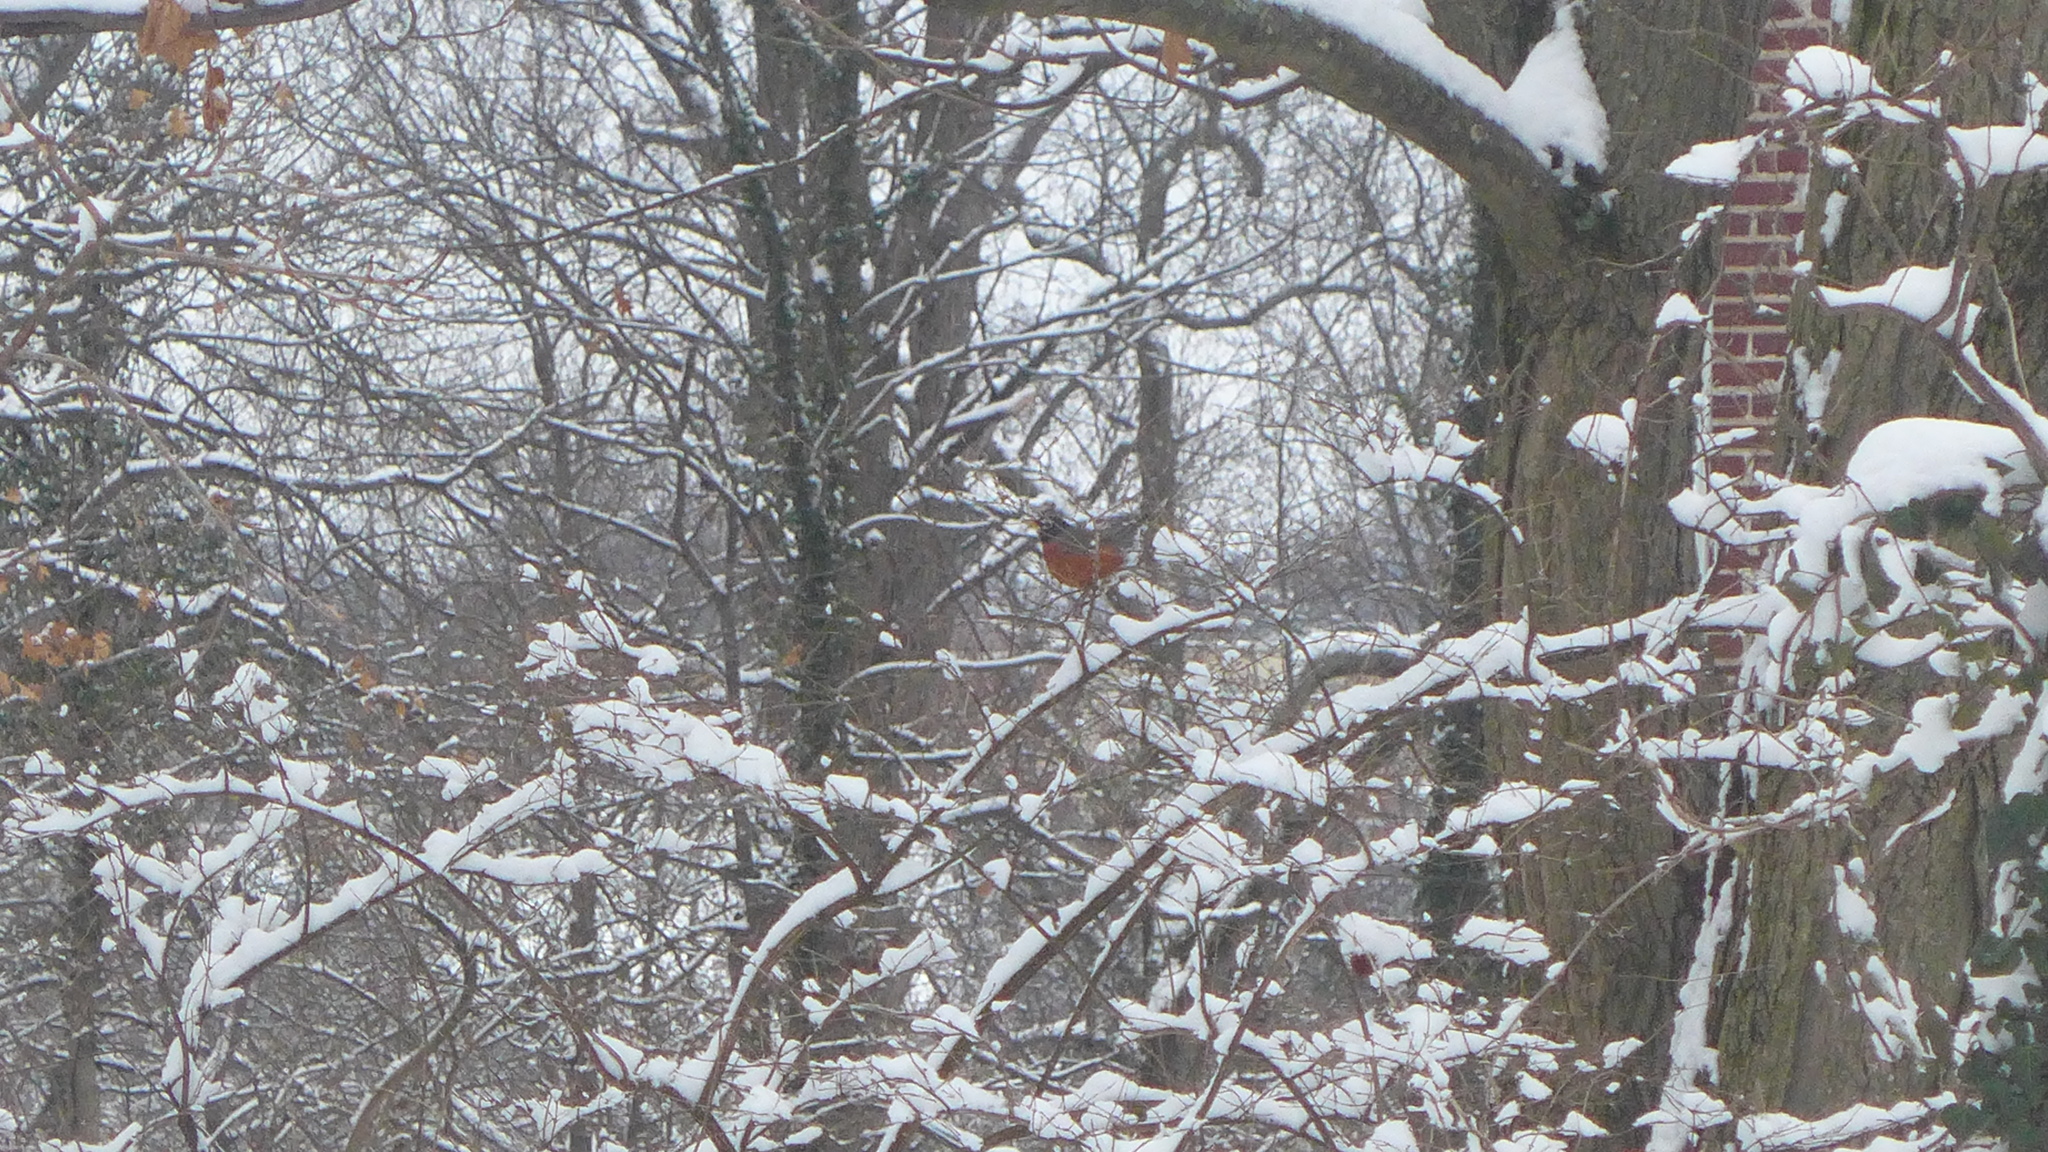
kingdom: Animalia
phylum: Chordata
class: Aves
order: Passeriformes
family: Turdidae
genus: Turdus
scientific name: Turdus migratorius
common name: American robin
